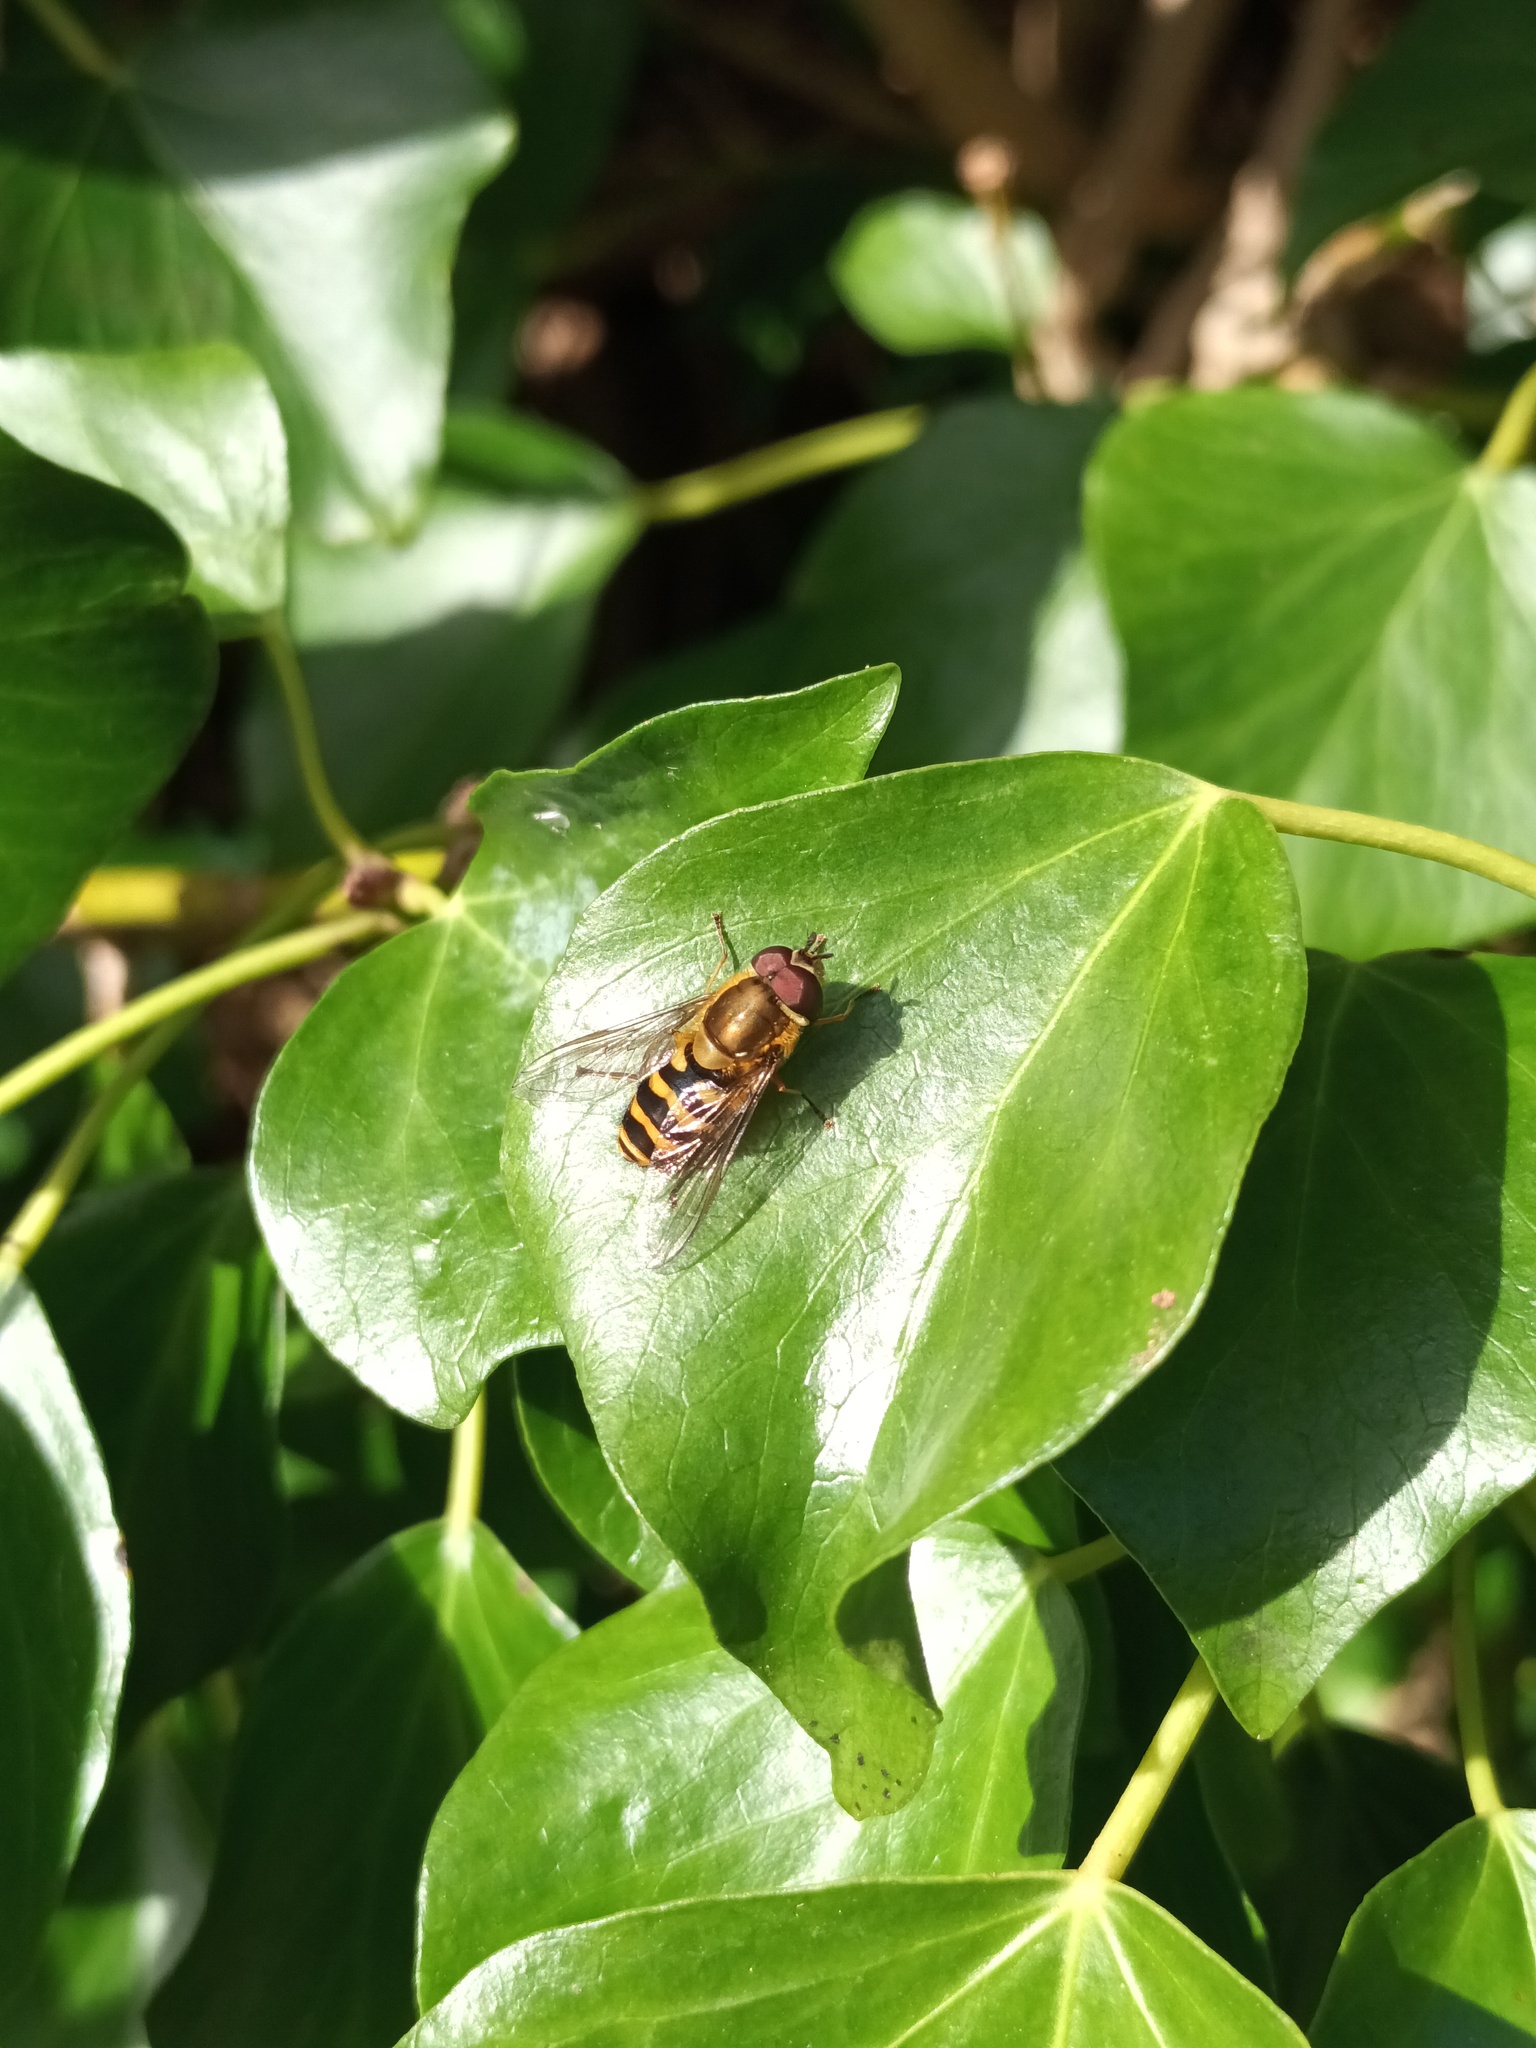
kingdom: Animalia
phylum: Arthropoda
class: Insecta
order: Diptera
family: Syrphidae
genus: Syrphus
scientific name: Syrphus
